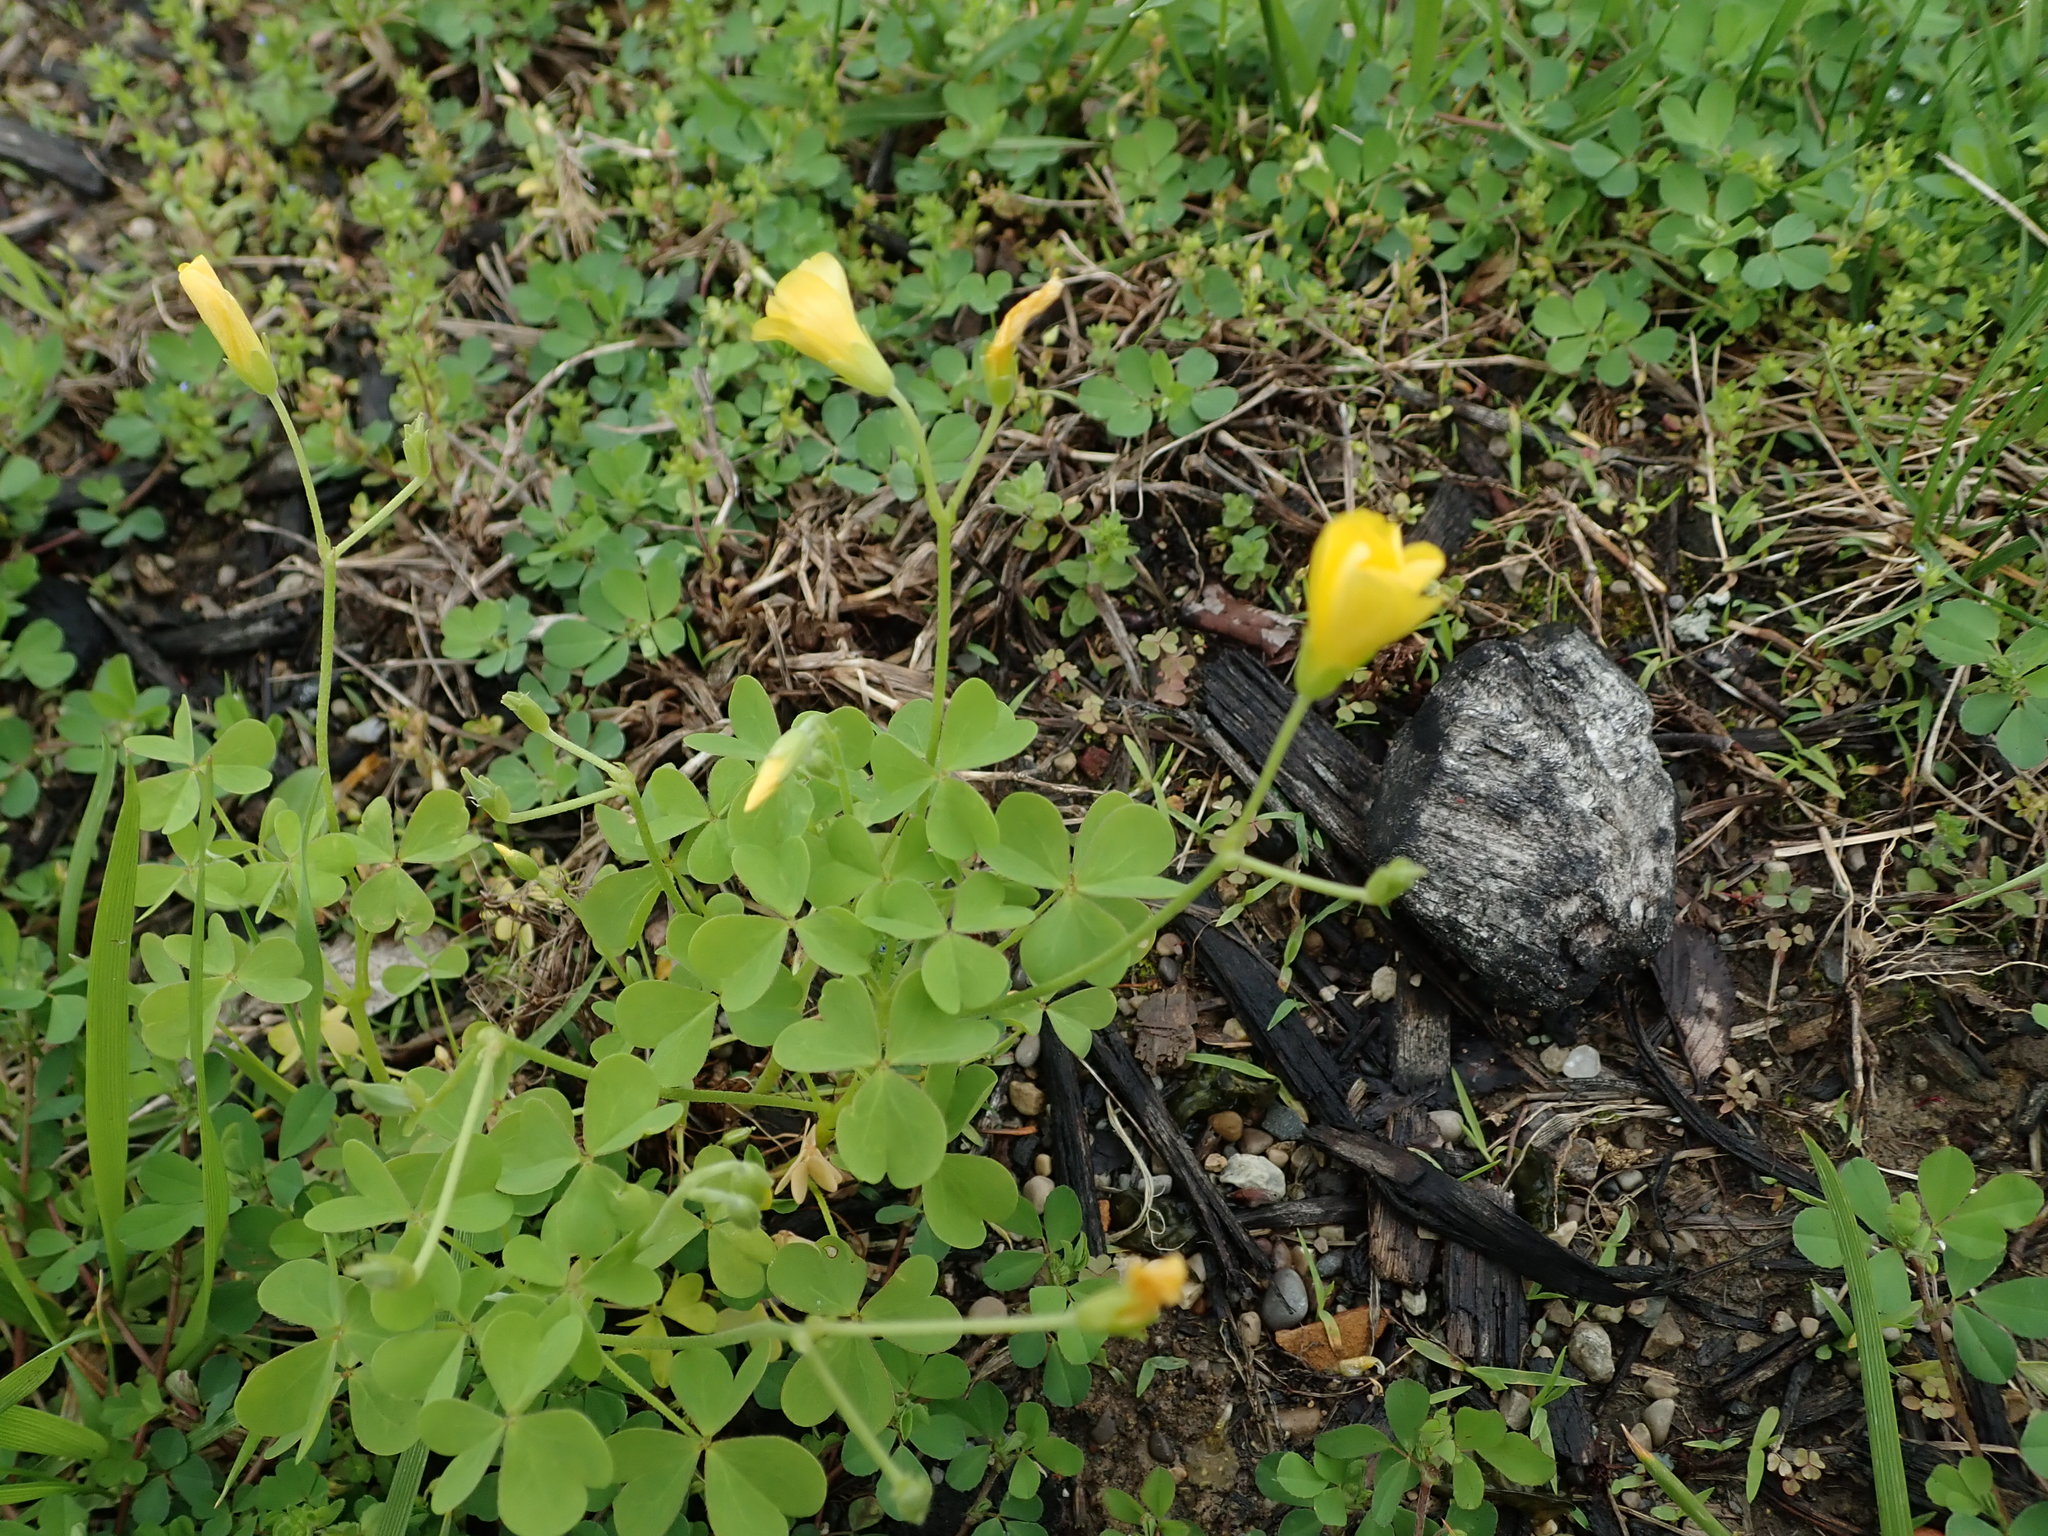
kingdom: Plantae
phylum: Tracheophyta
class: Magnoliopsida
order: Oxalidales
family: Oxalidaceae
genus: Oxalis
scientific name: Oxalis dillenii
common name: Sussex yellow-sorrel
